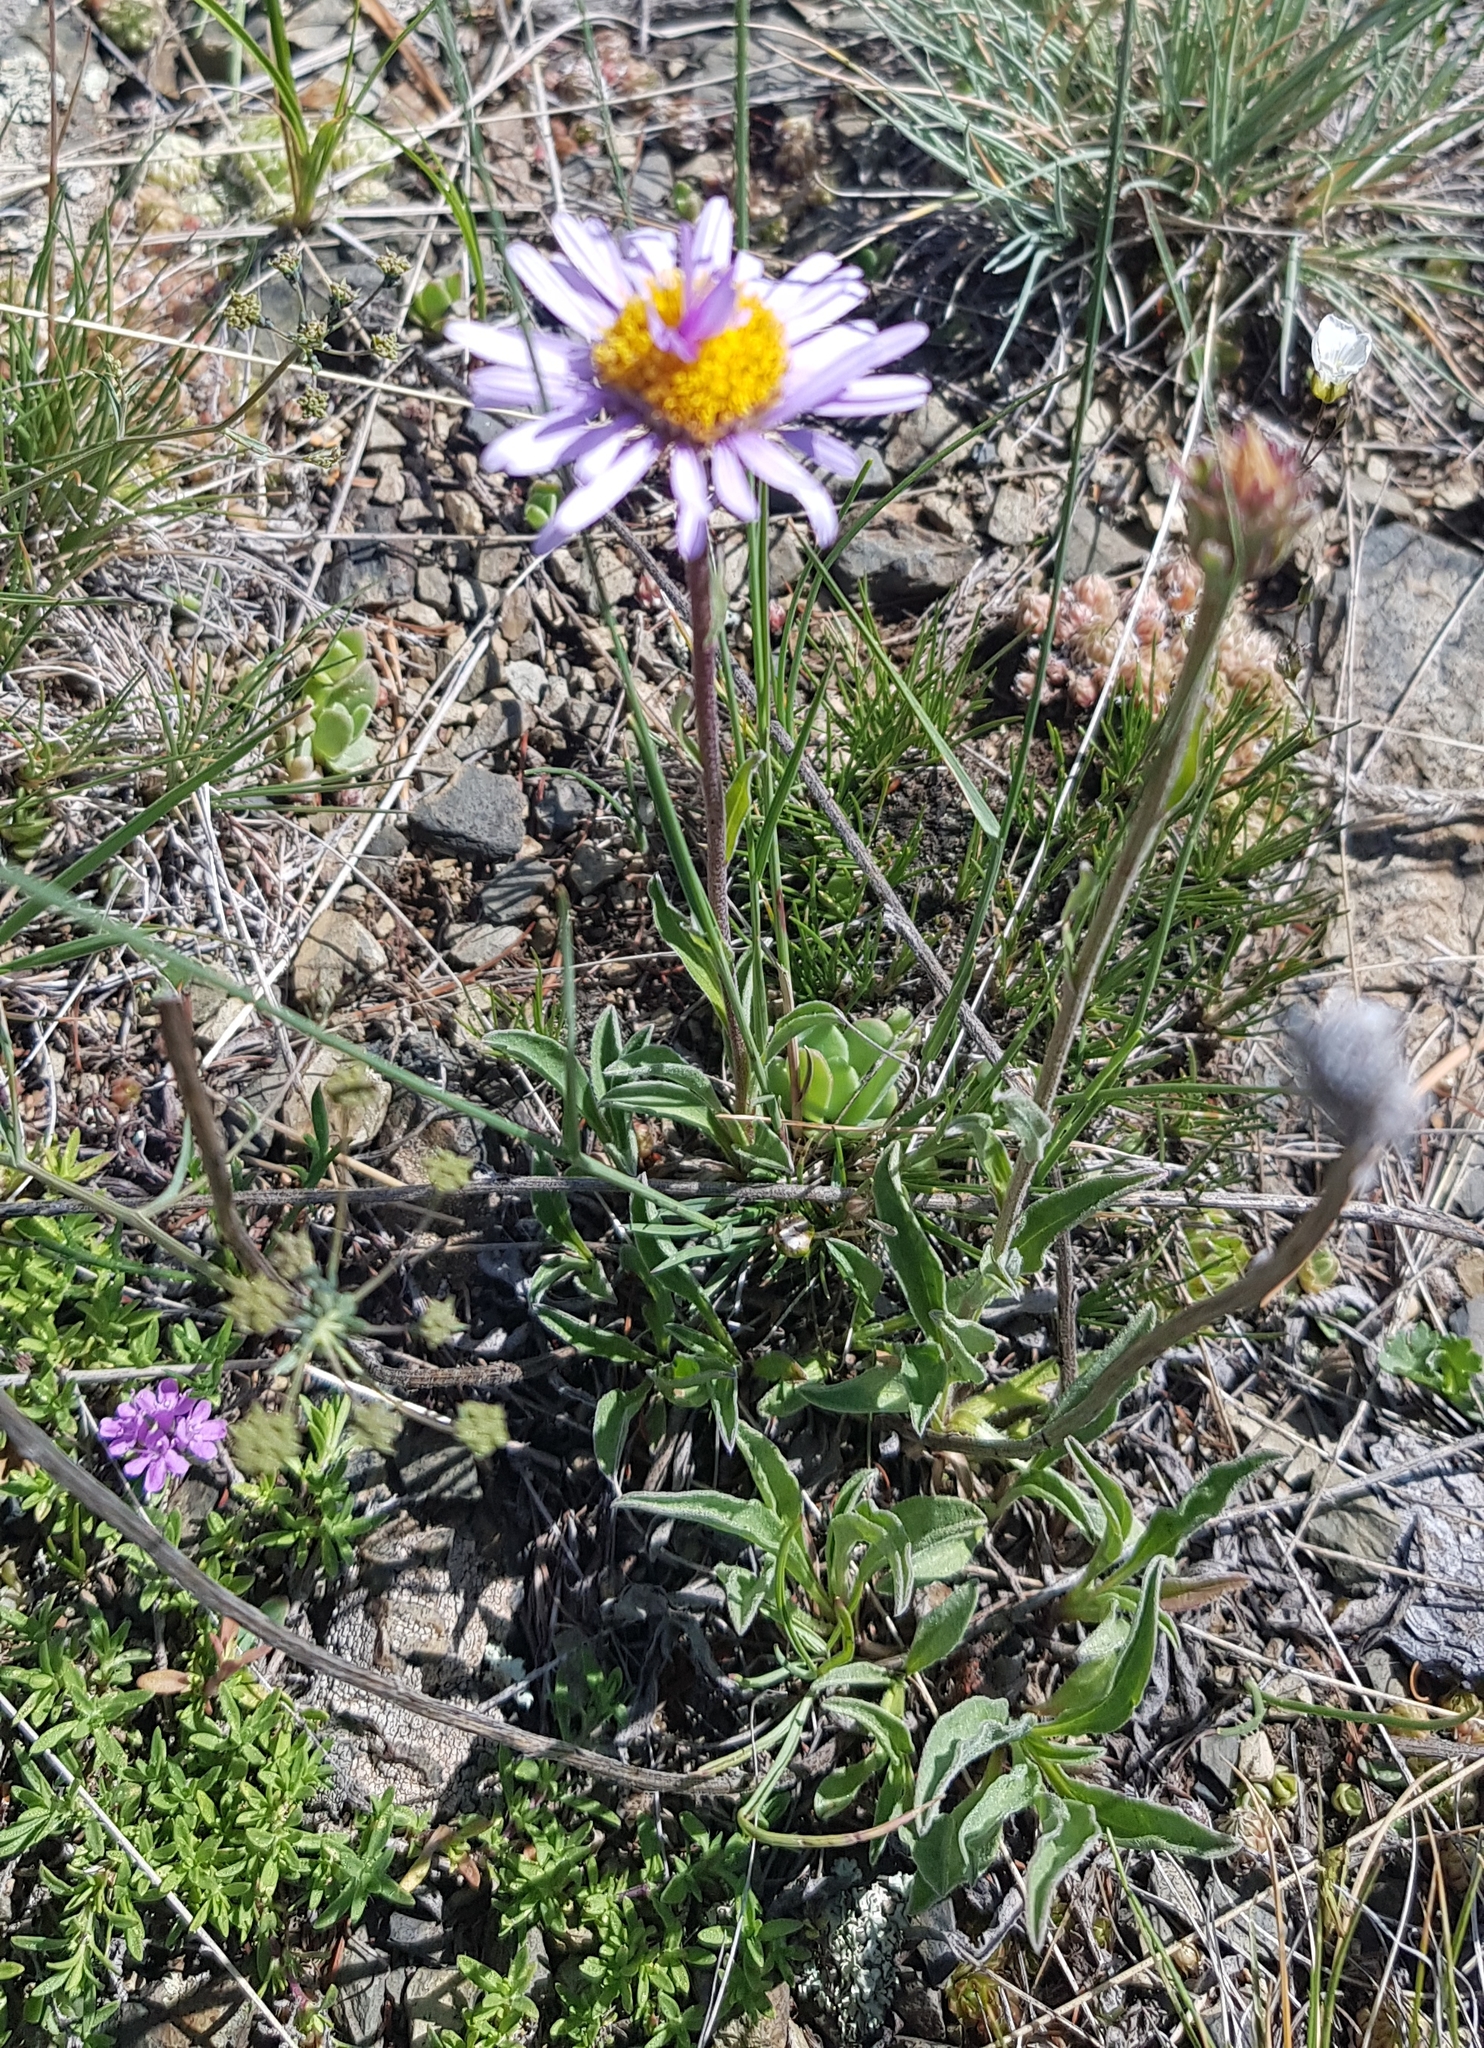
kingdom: Plantae
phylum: Tracheophyta
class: Magnoliopsida
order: Asterales
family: Asteraceae
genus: Aster
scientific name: Aster alpinus
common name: Alpine aster
